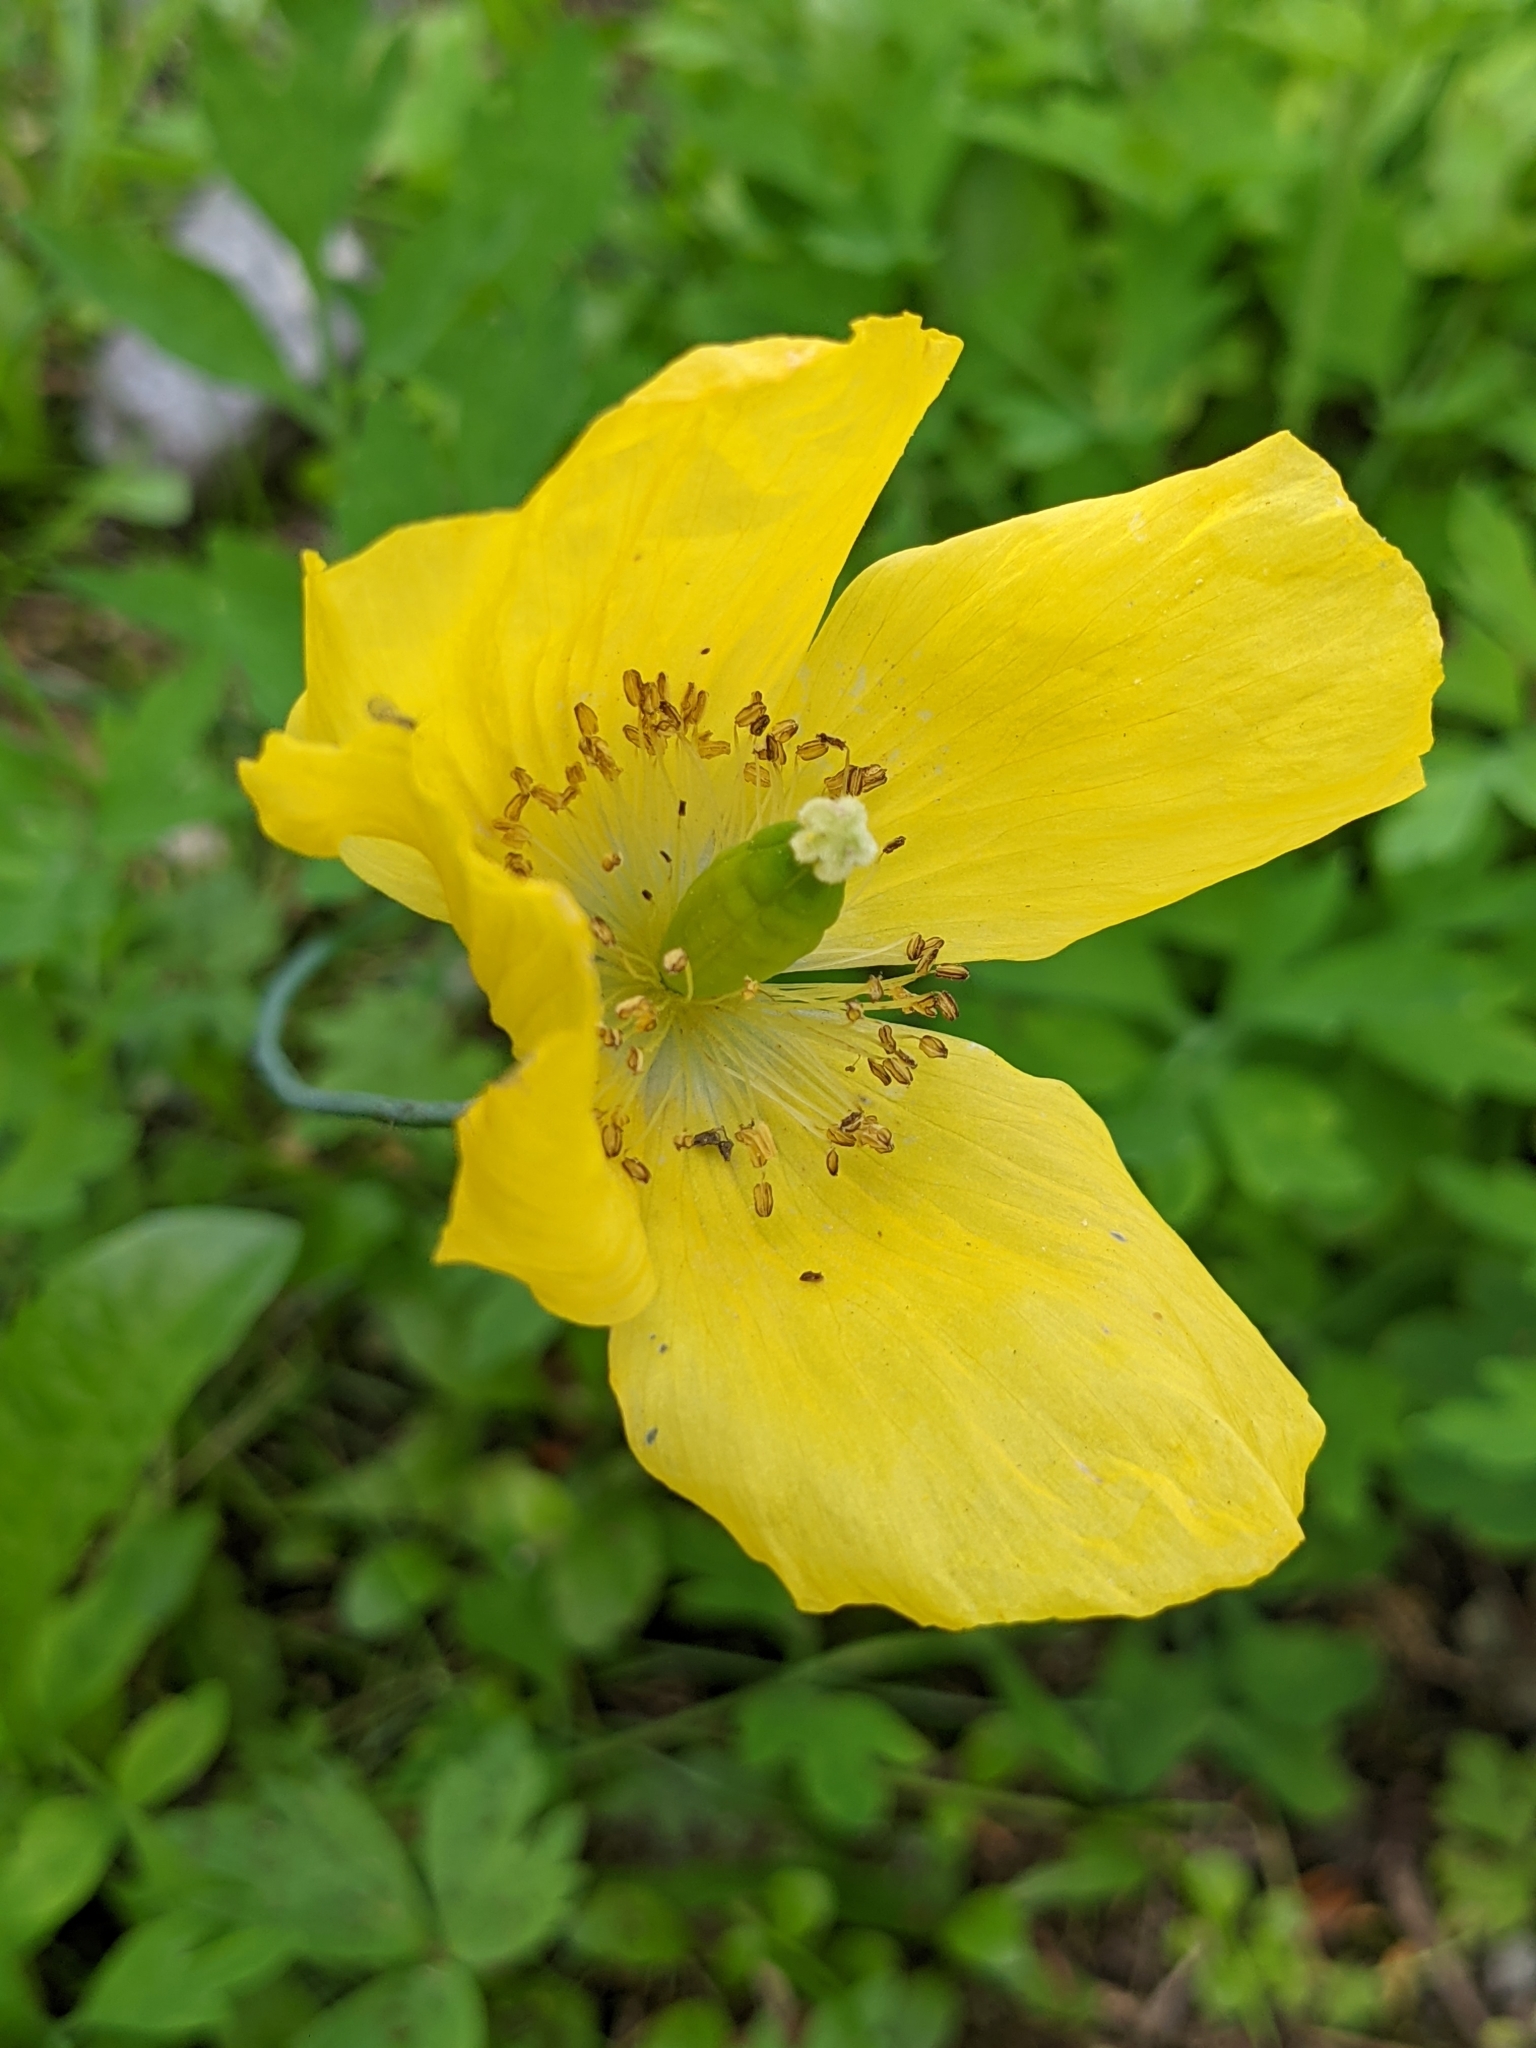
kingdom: Plantae
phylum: Tracheophyta
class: Magnoliopsida
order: Ranunculales
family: Papaveraceae
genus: Papaver
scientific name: Papaver cambricum
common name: Poppy
